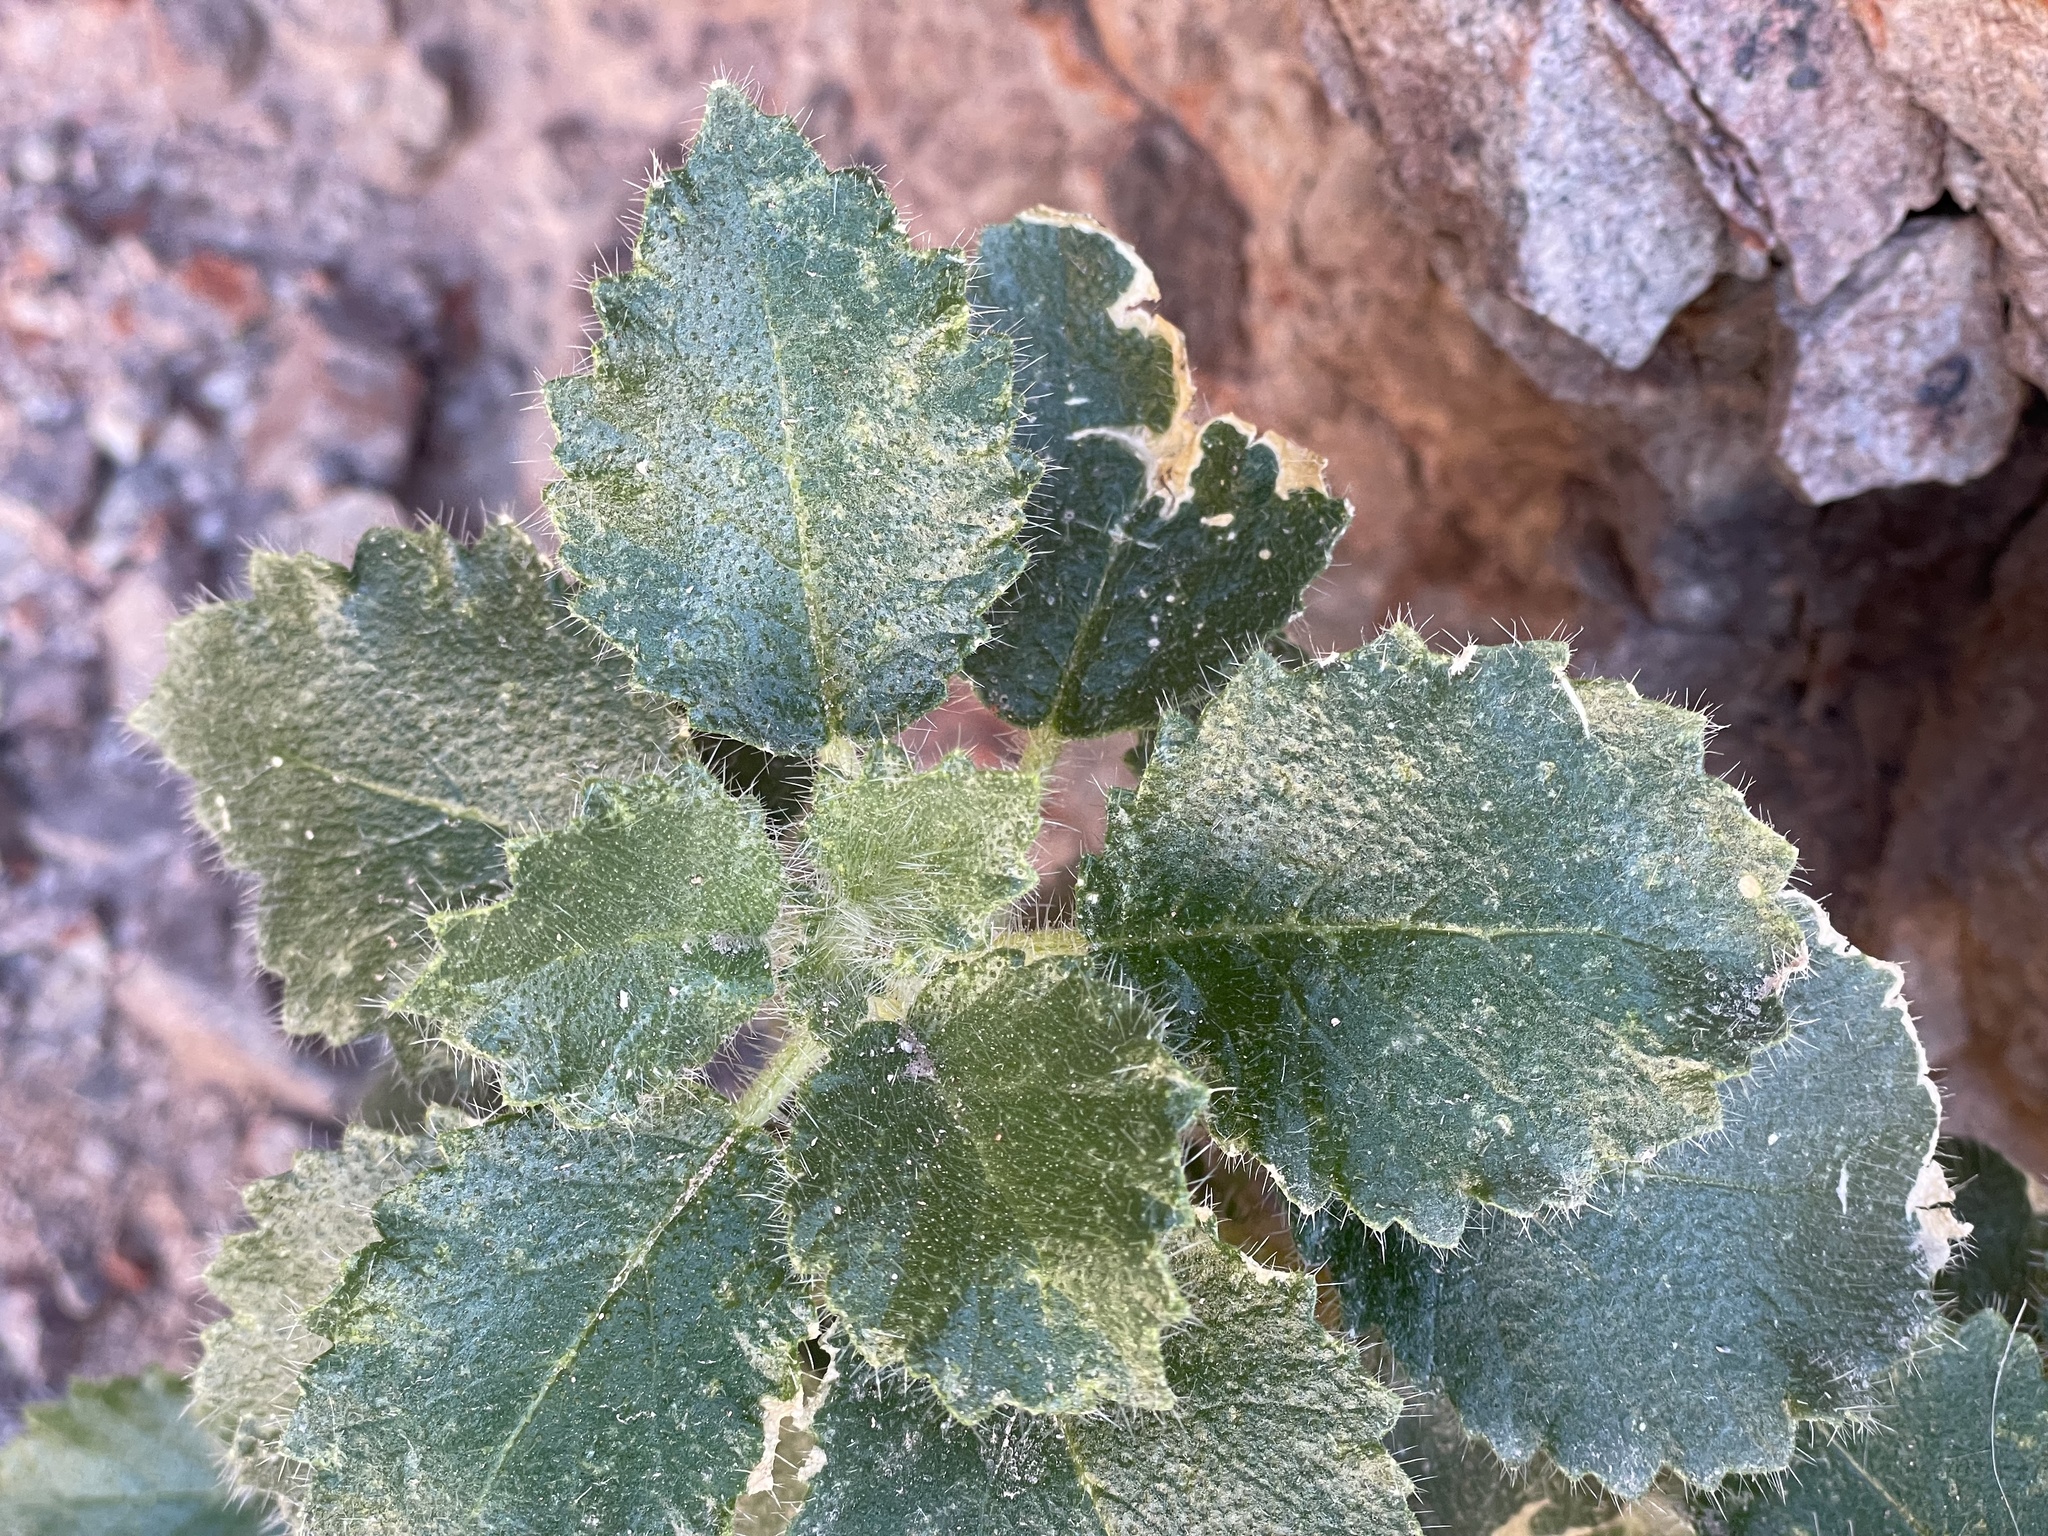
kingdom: Plantae
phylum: Tracheophyta
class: Magnoliopsida
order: Cornales
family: Loasaceae
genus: Eucnide
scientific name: Eucnide urens
